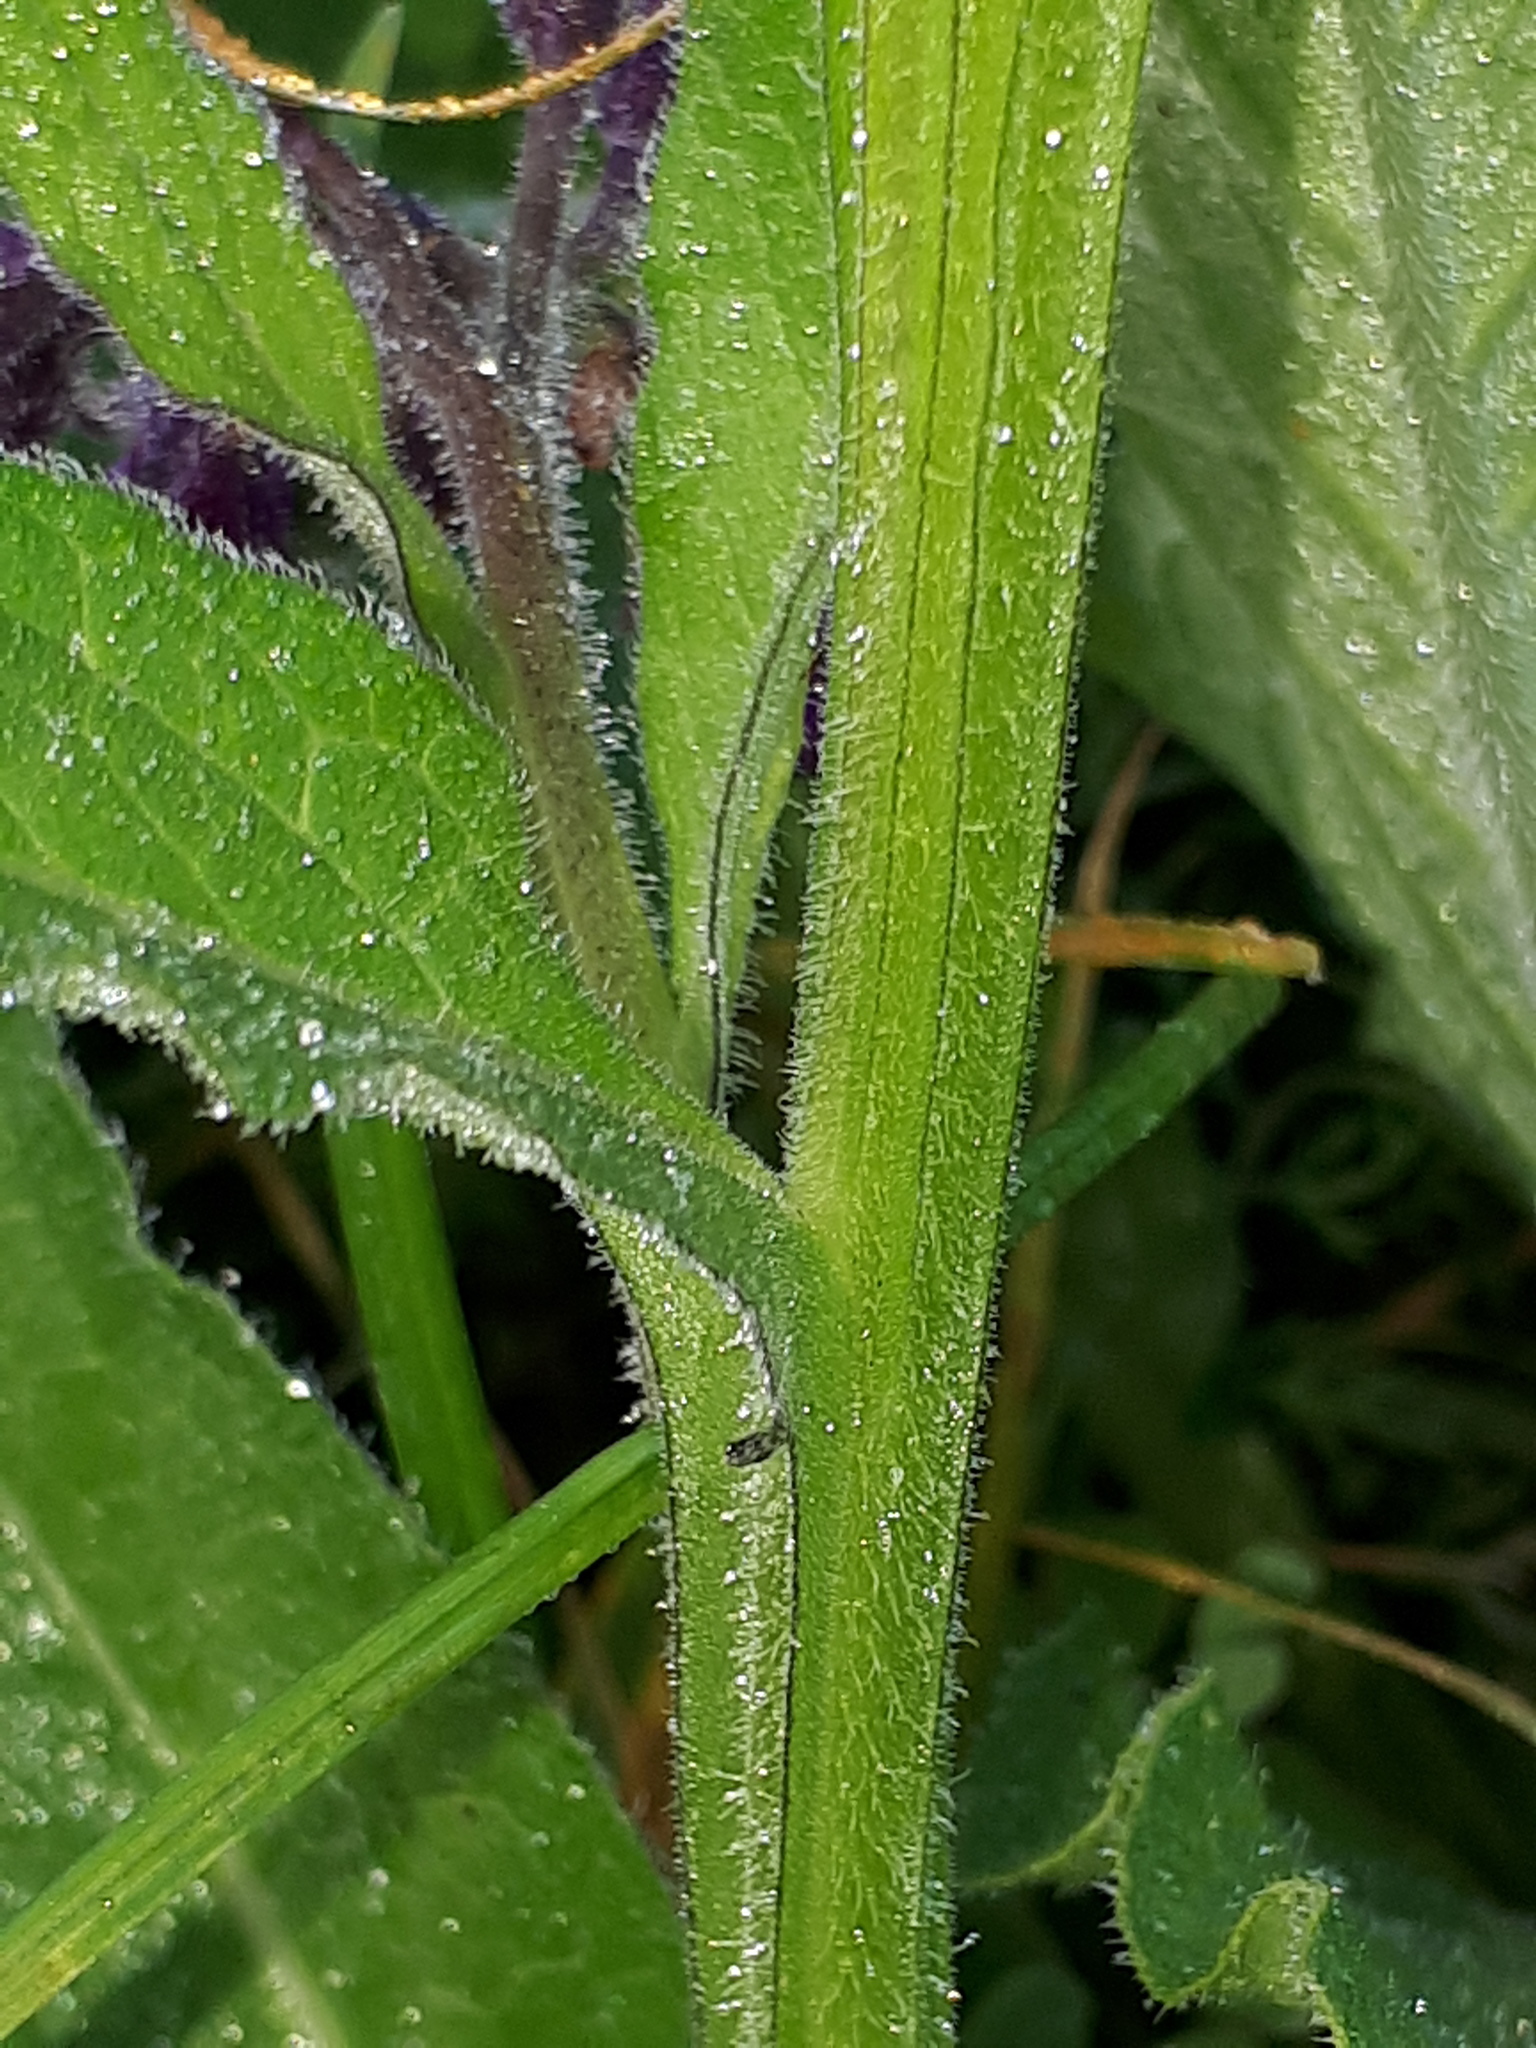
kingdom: Plantae
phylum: Tracheophyta
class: Magnoliopsida
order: Boraginales
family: Boraginaceae
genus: Symphytum
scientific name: Symphytum officinale
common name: Common comfrey
